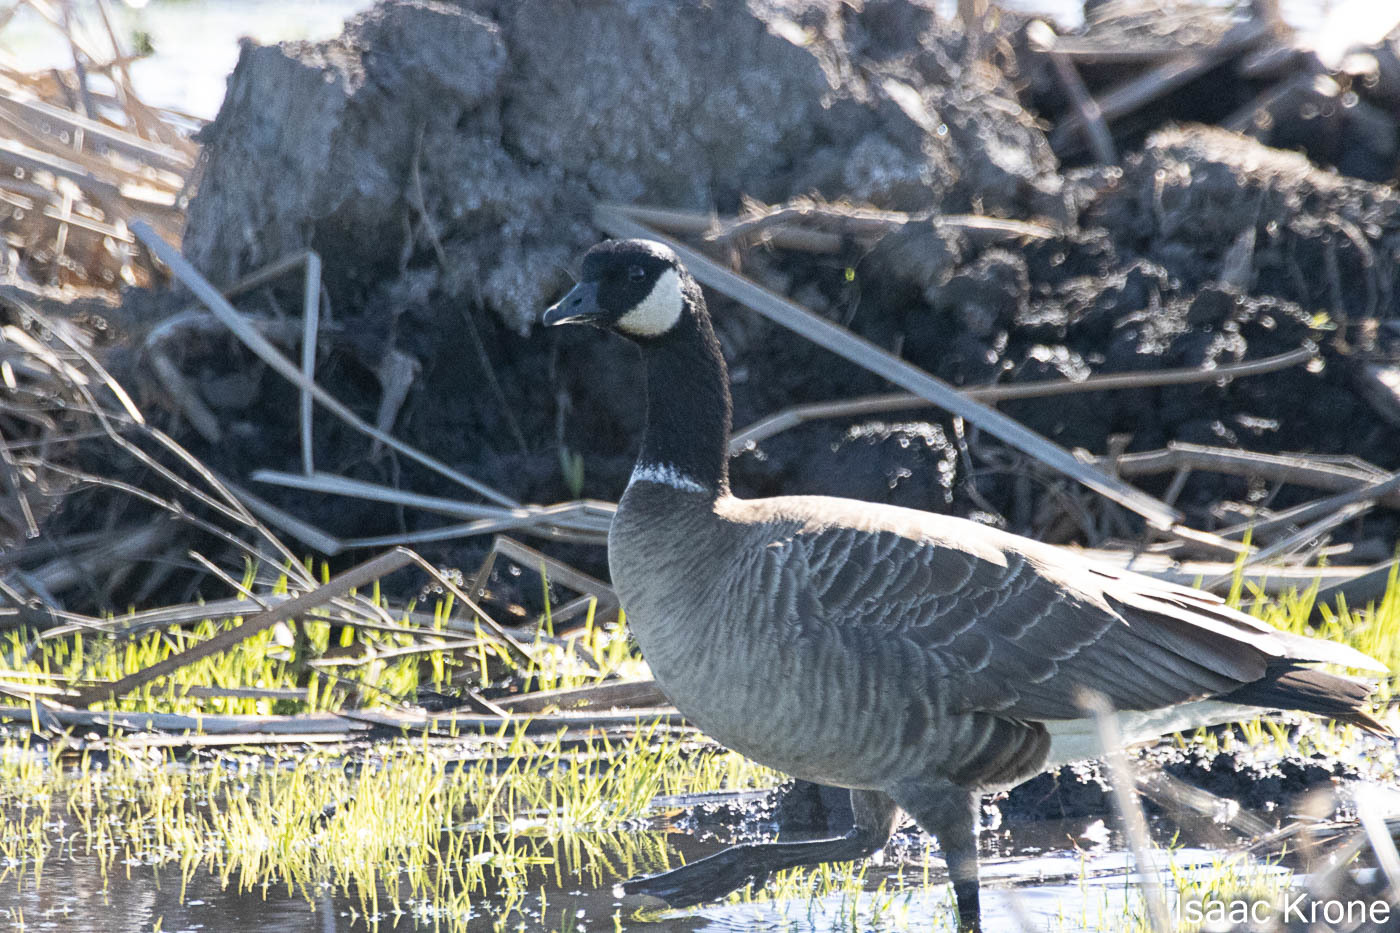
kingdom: Animalia
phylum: Chordata
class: Aves
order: Anseriformes
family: Anatidae
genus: Branta
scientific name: Branta hutchinsii
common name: Cackling goose
